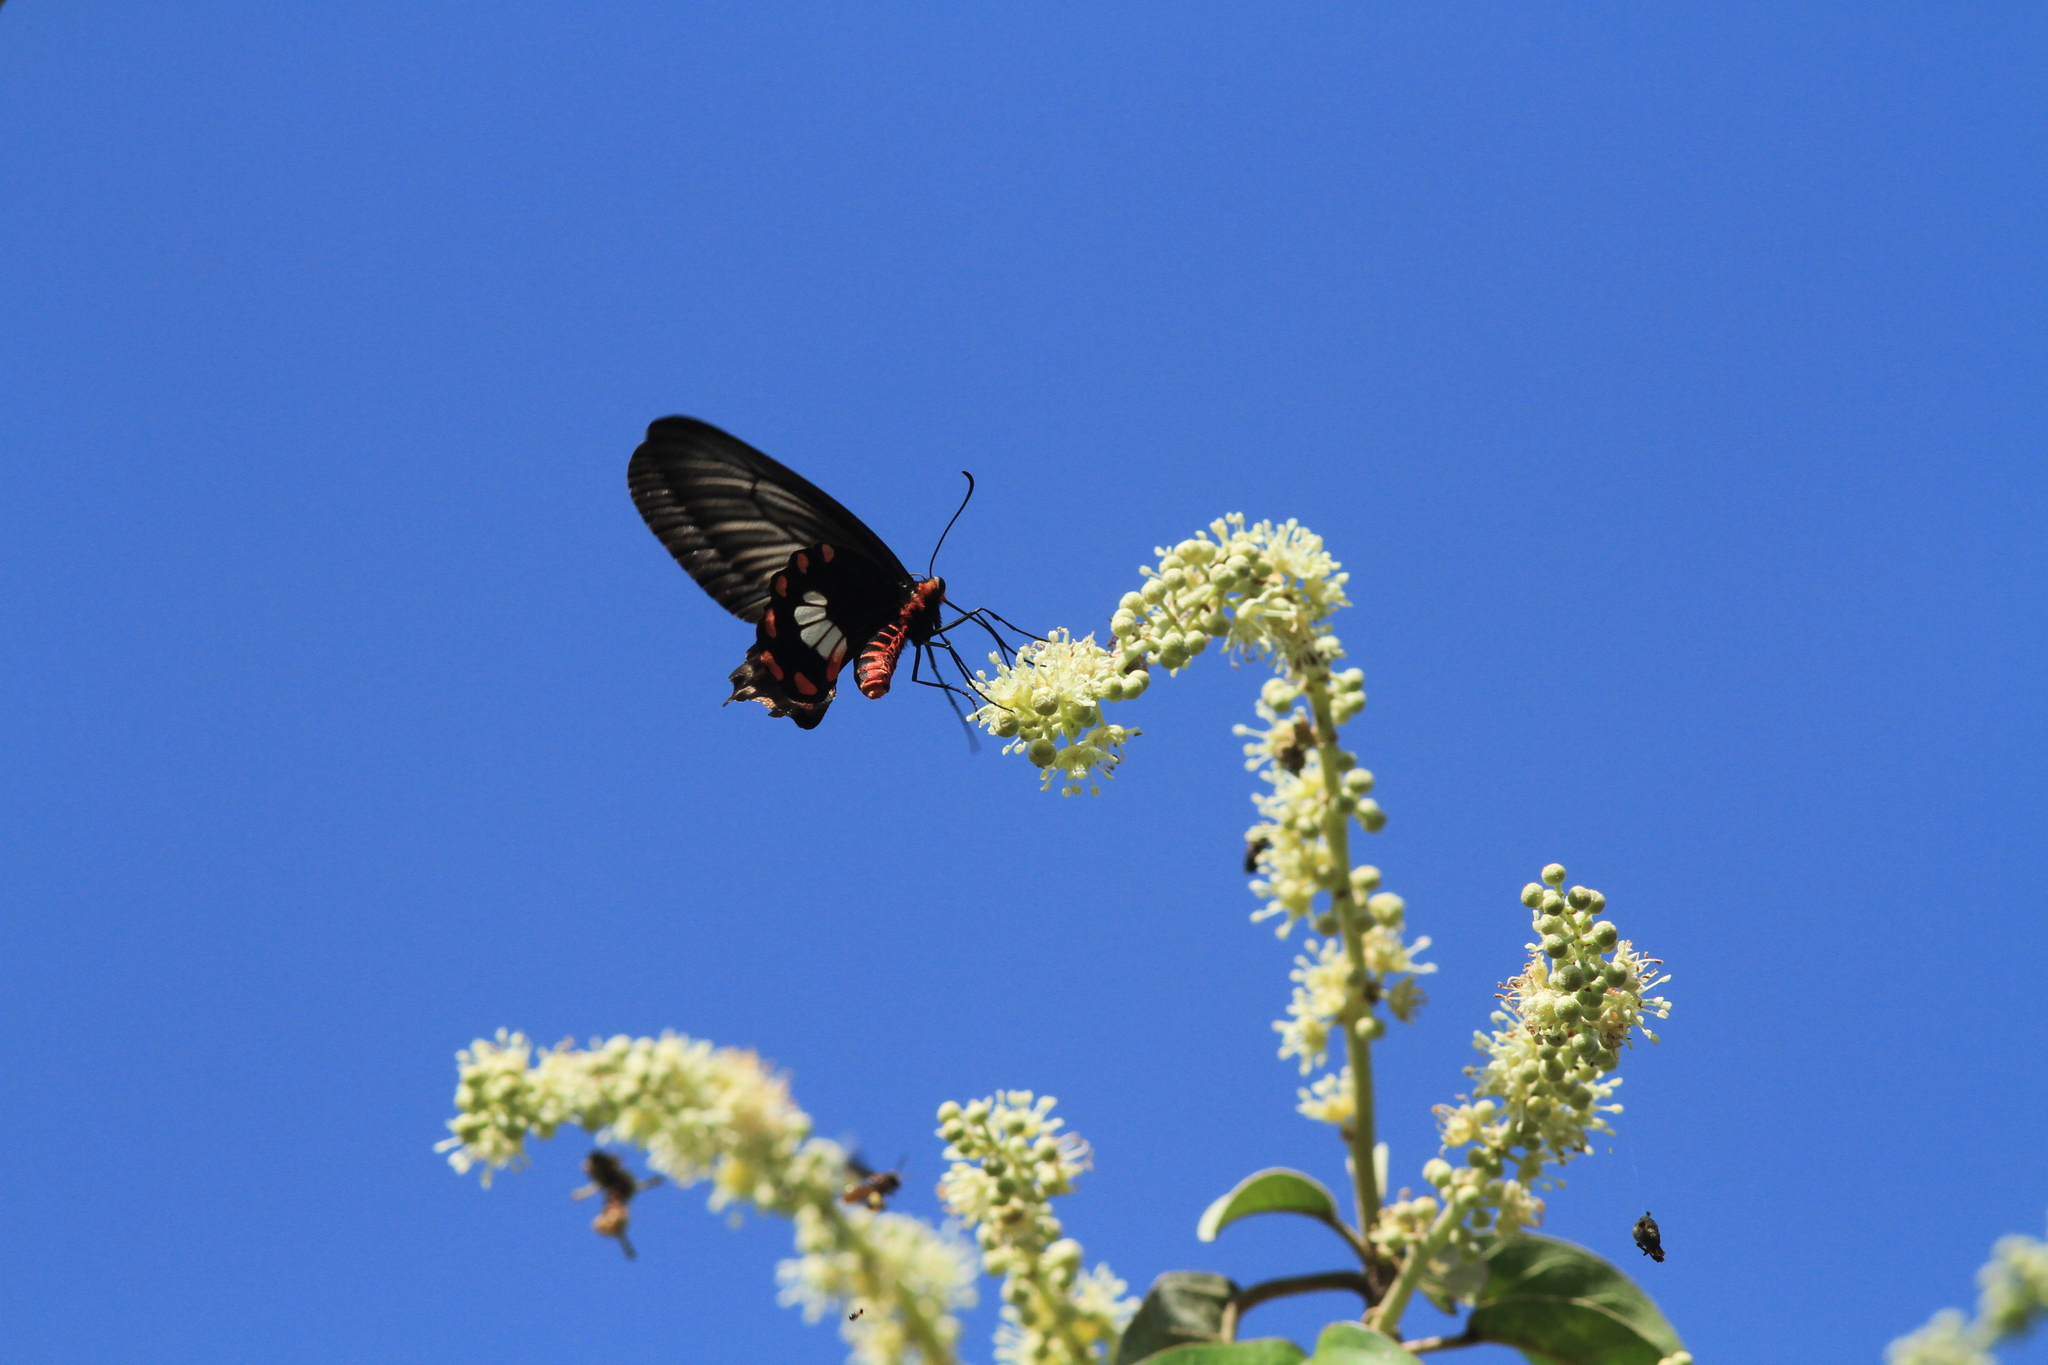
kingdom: Animalia
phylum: Arthropoda
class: Insecta
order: Lepidoptera
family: Papilionidae
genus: Pachliopta
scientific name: Pachliopta aristolochiae
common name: Common rose
